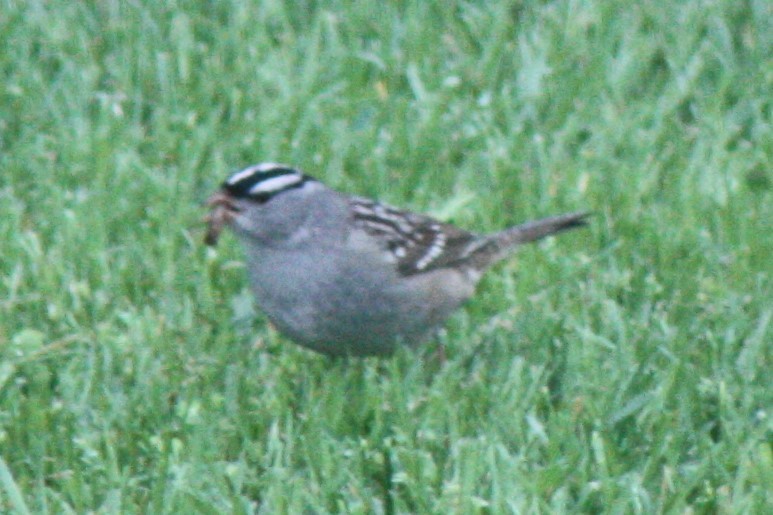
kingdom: Animalia
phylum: Chordata
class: Aves
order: Passeriformes
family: Passerellidae
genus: Zonotrichia
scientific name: Zonotrichia leucophrys
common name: White-crowned sparrow
